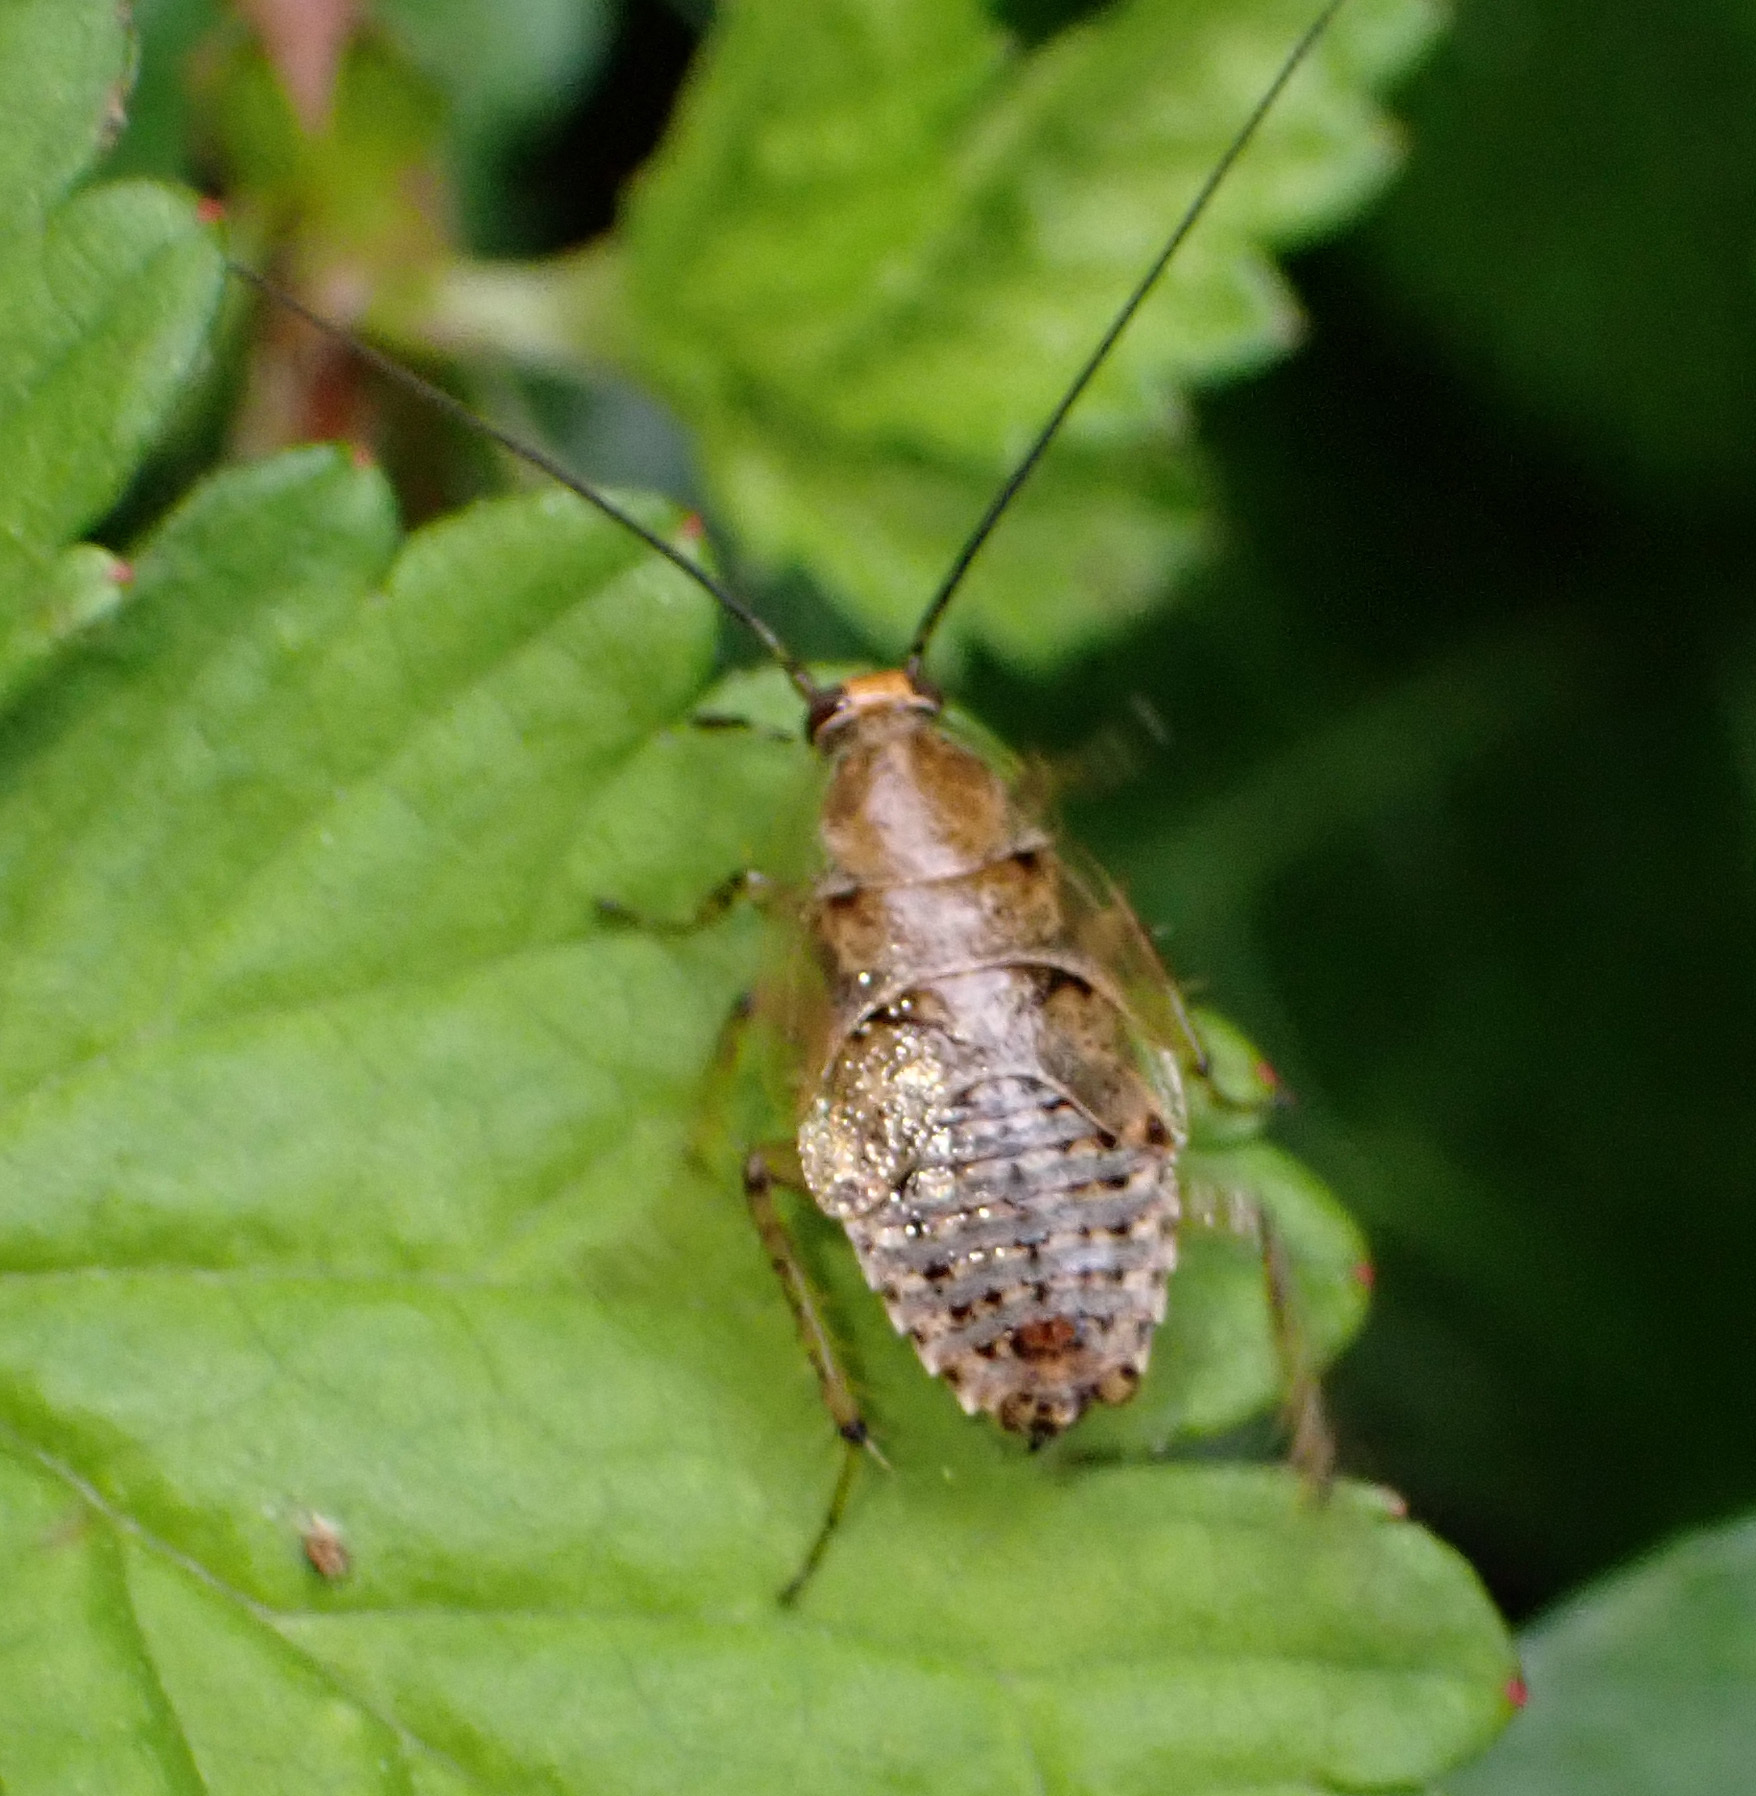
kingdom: Animalia
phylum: Arthropoda
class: Insecta
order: Blattodea
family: Ectobiidae
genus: Ectobius
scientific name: Ectobius vittiventris
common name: Garden cockroach
